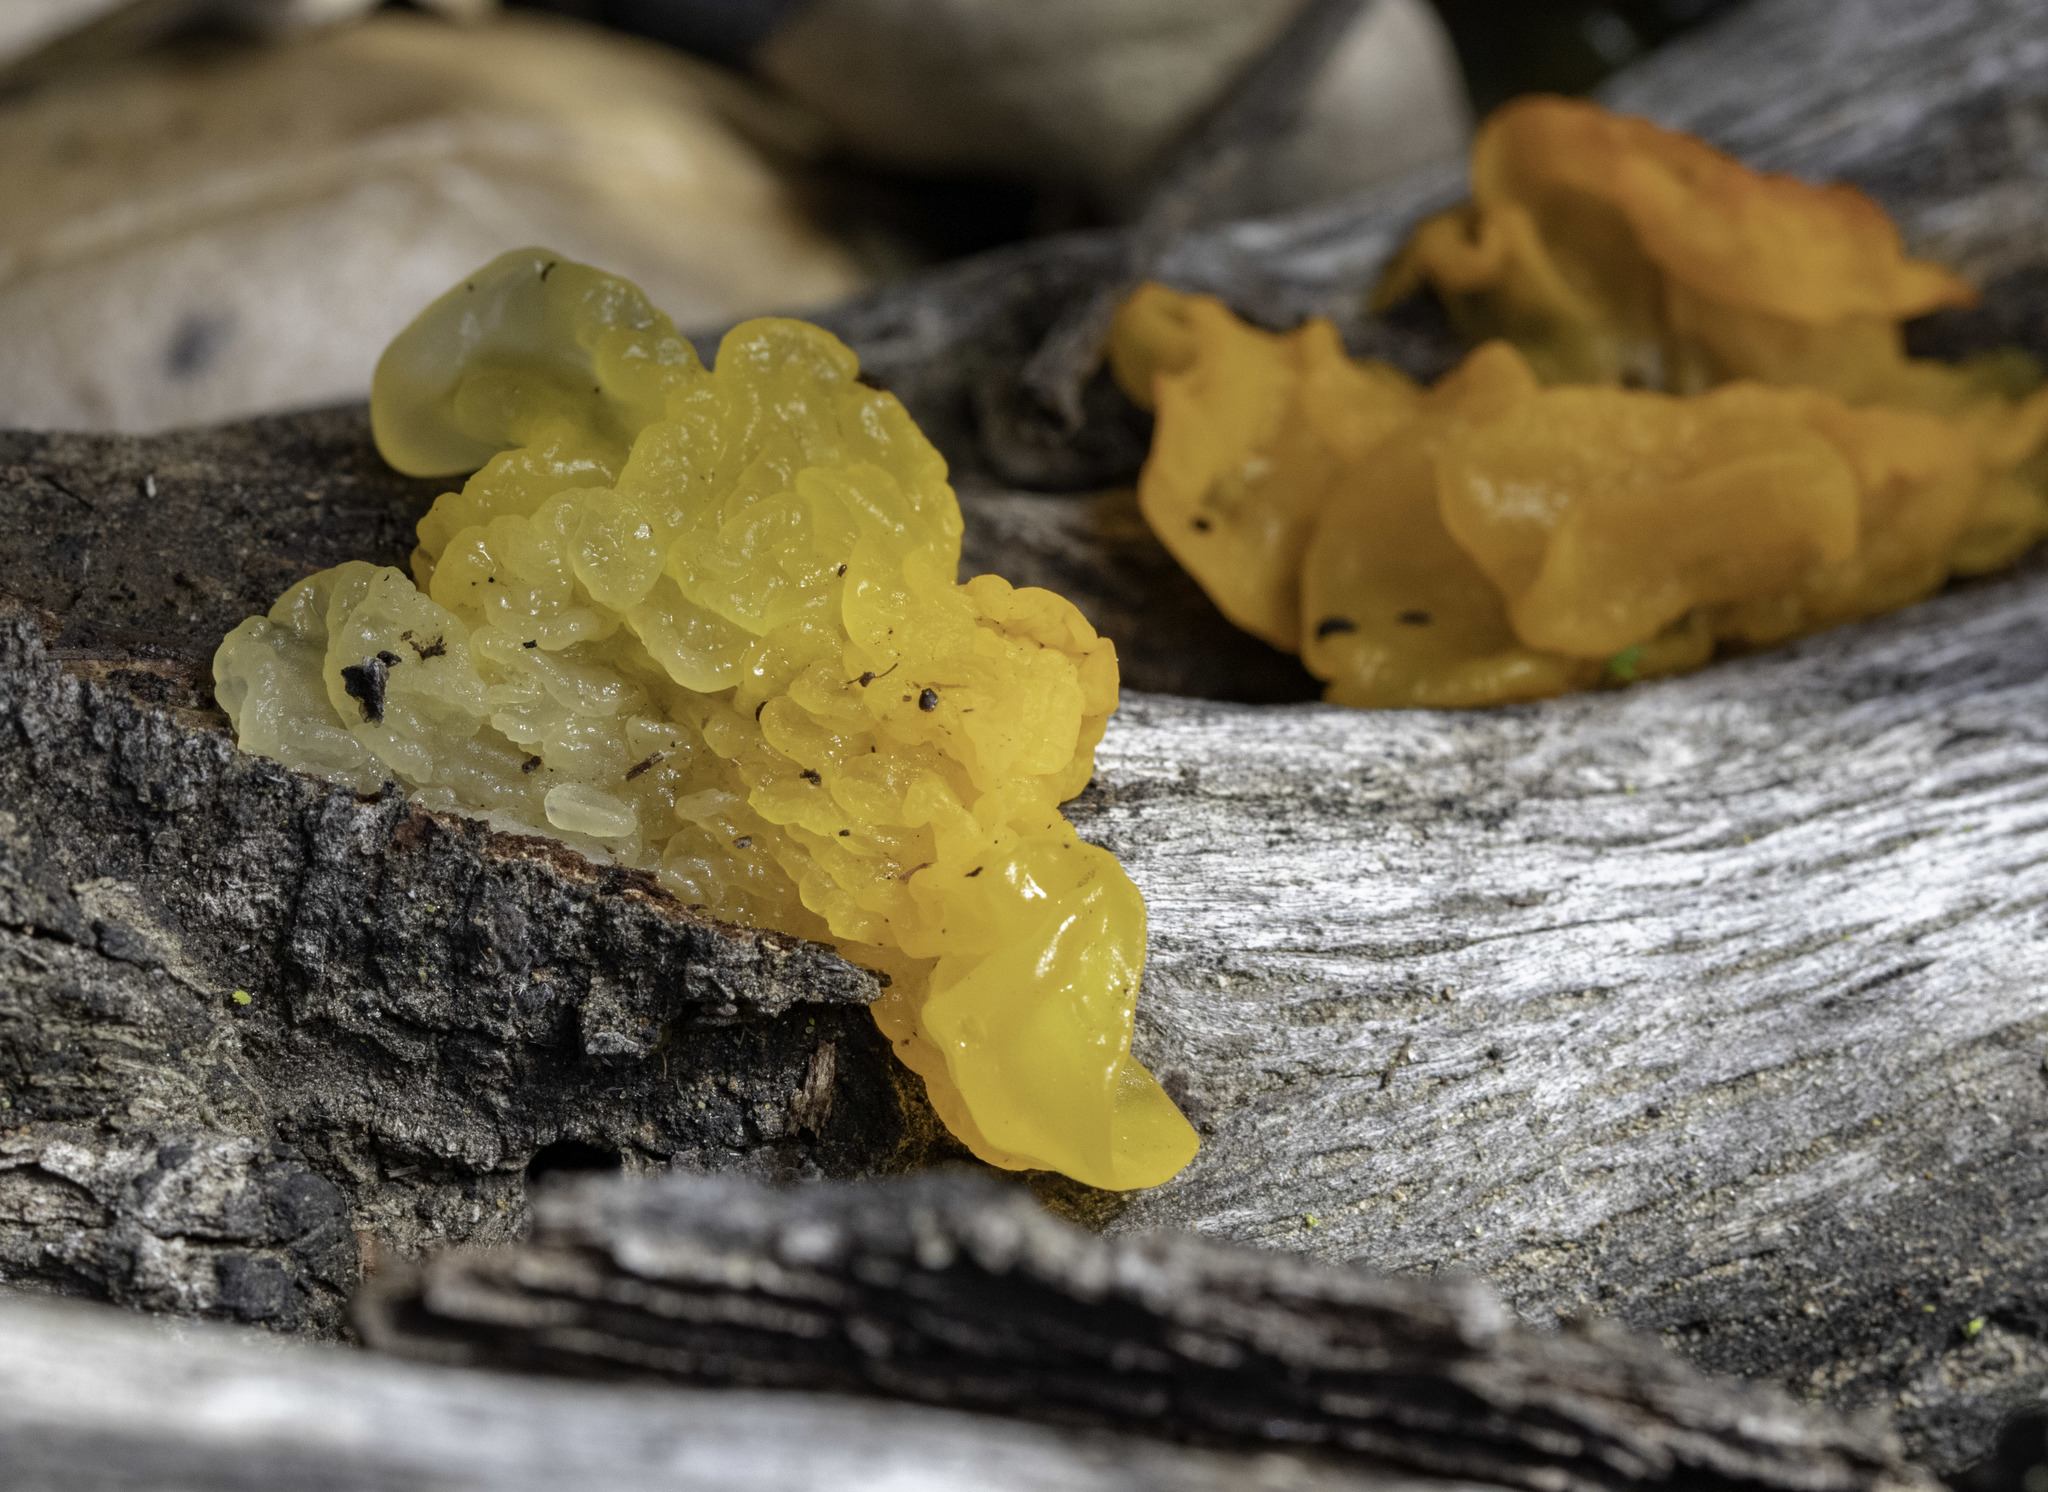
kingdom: Fungi
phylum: Basidiomycota
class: Tremellomycetes
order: Tremellales
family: Naemateliaceae
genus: Naematelia
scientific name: Naematelia aurantia
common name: Golden ear
